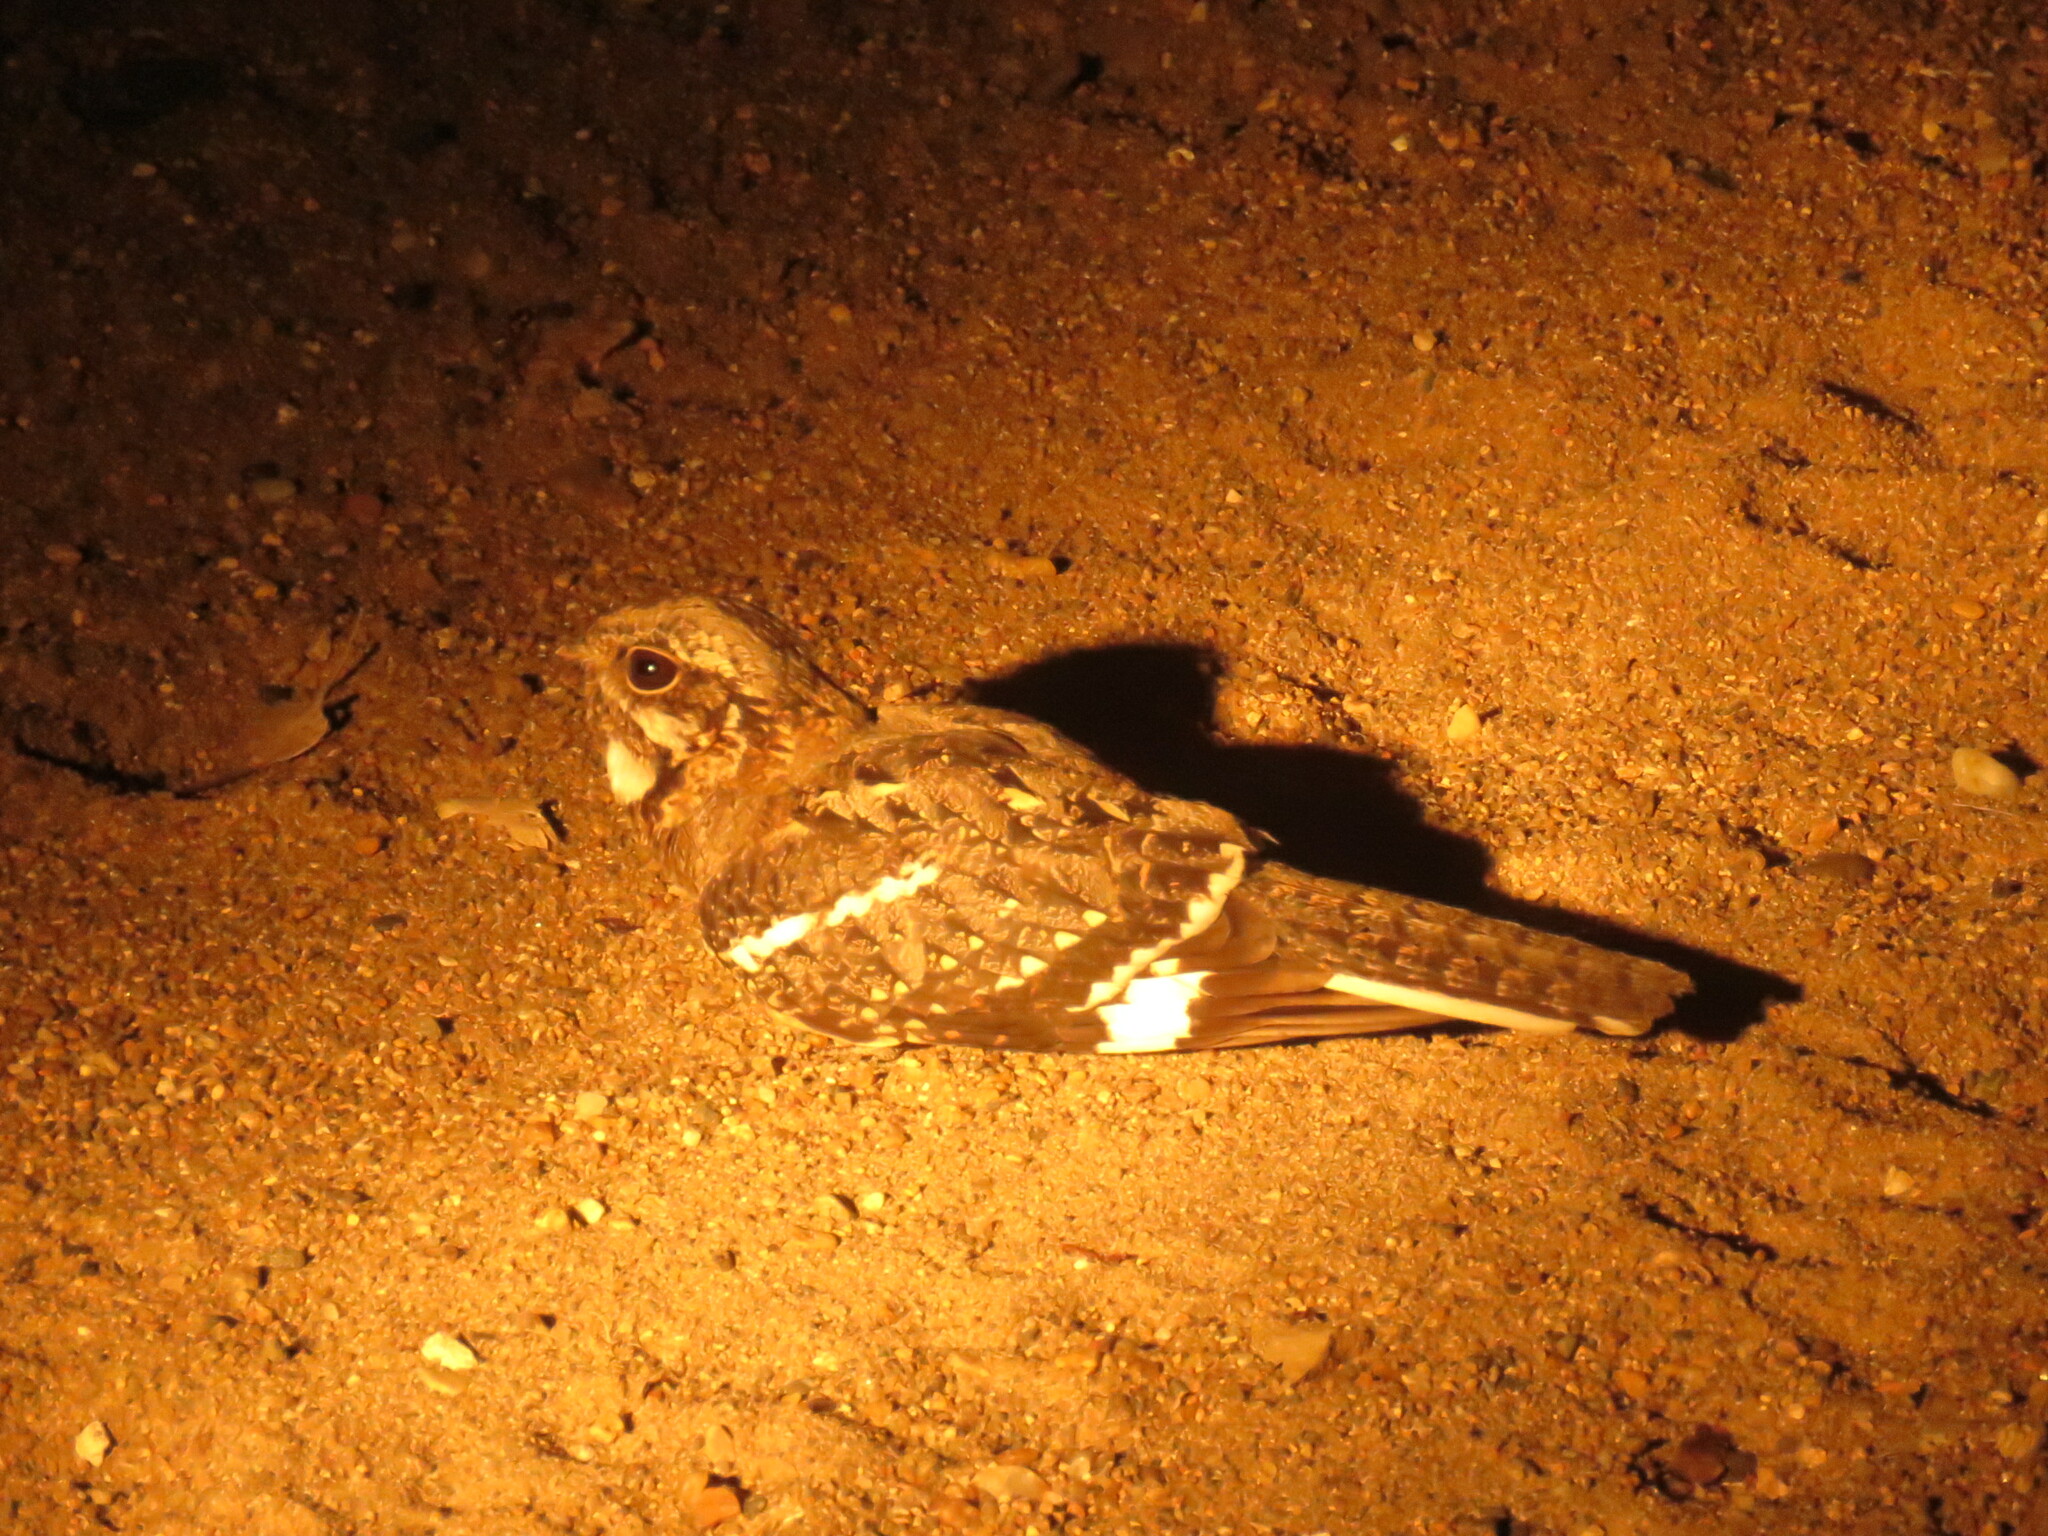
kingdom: Animalia
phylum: Chordata
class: Aves
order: Caprimulgiformes
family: Caprimulgidae
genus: Caprimulgus
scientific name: Caprimulgus fossii
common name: Square-tailed nightjar
